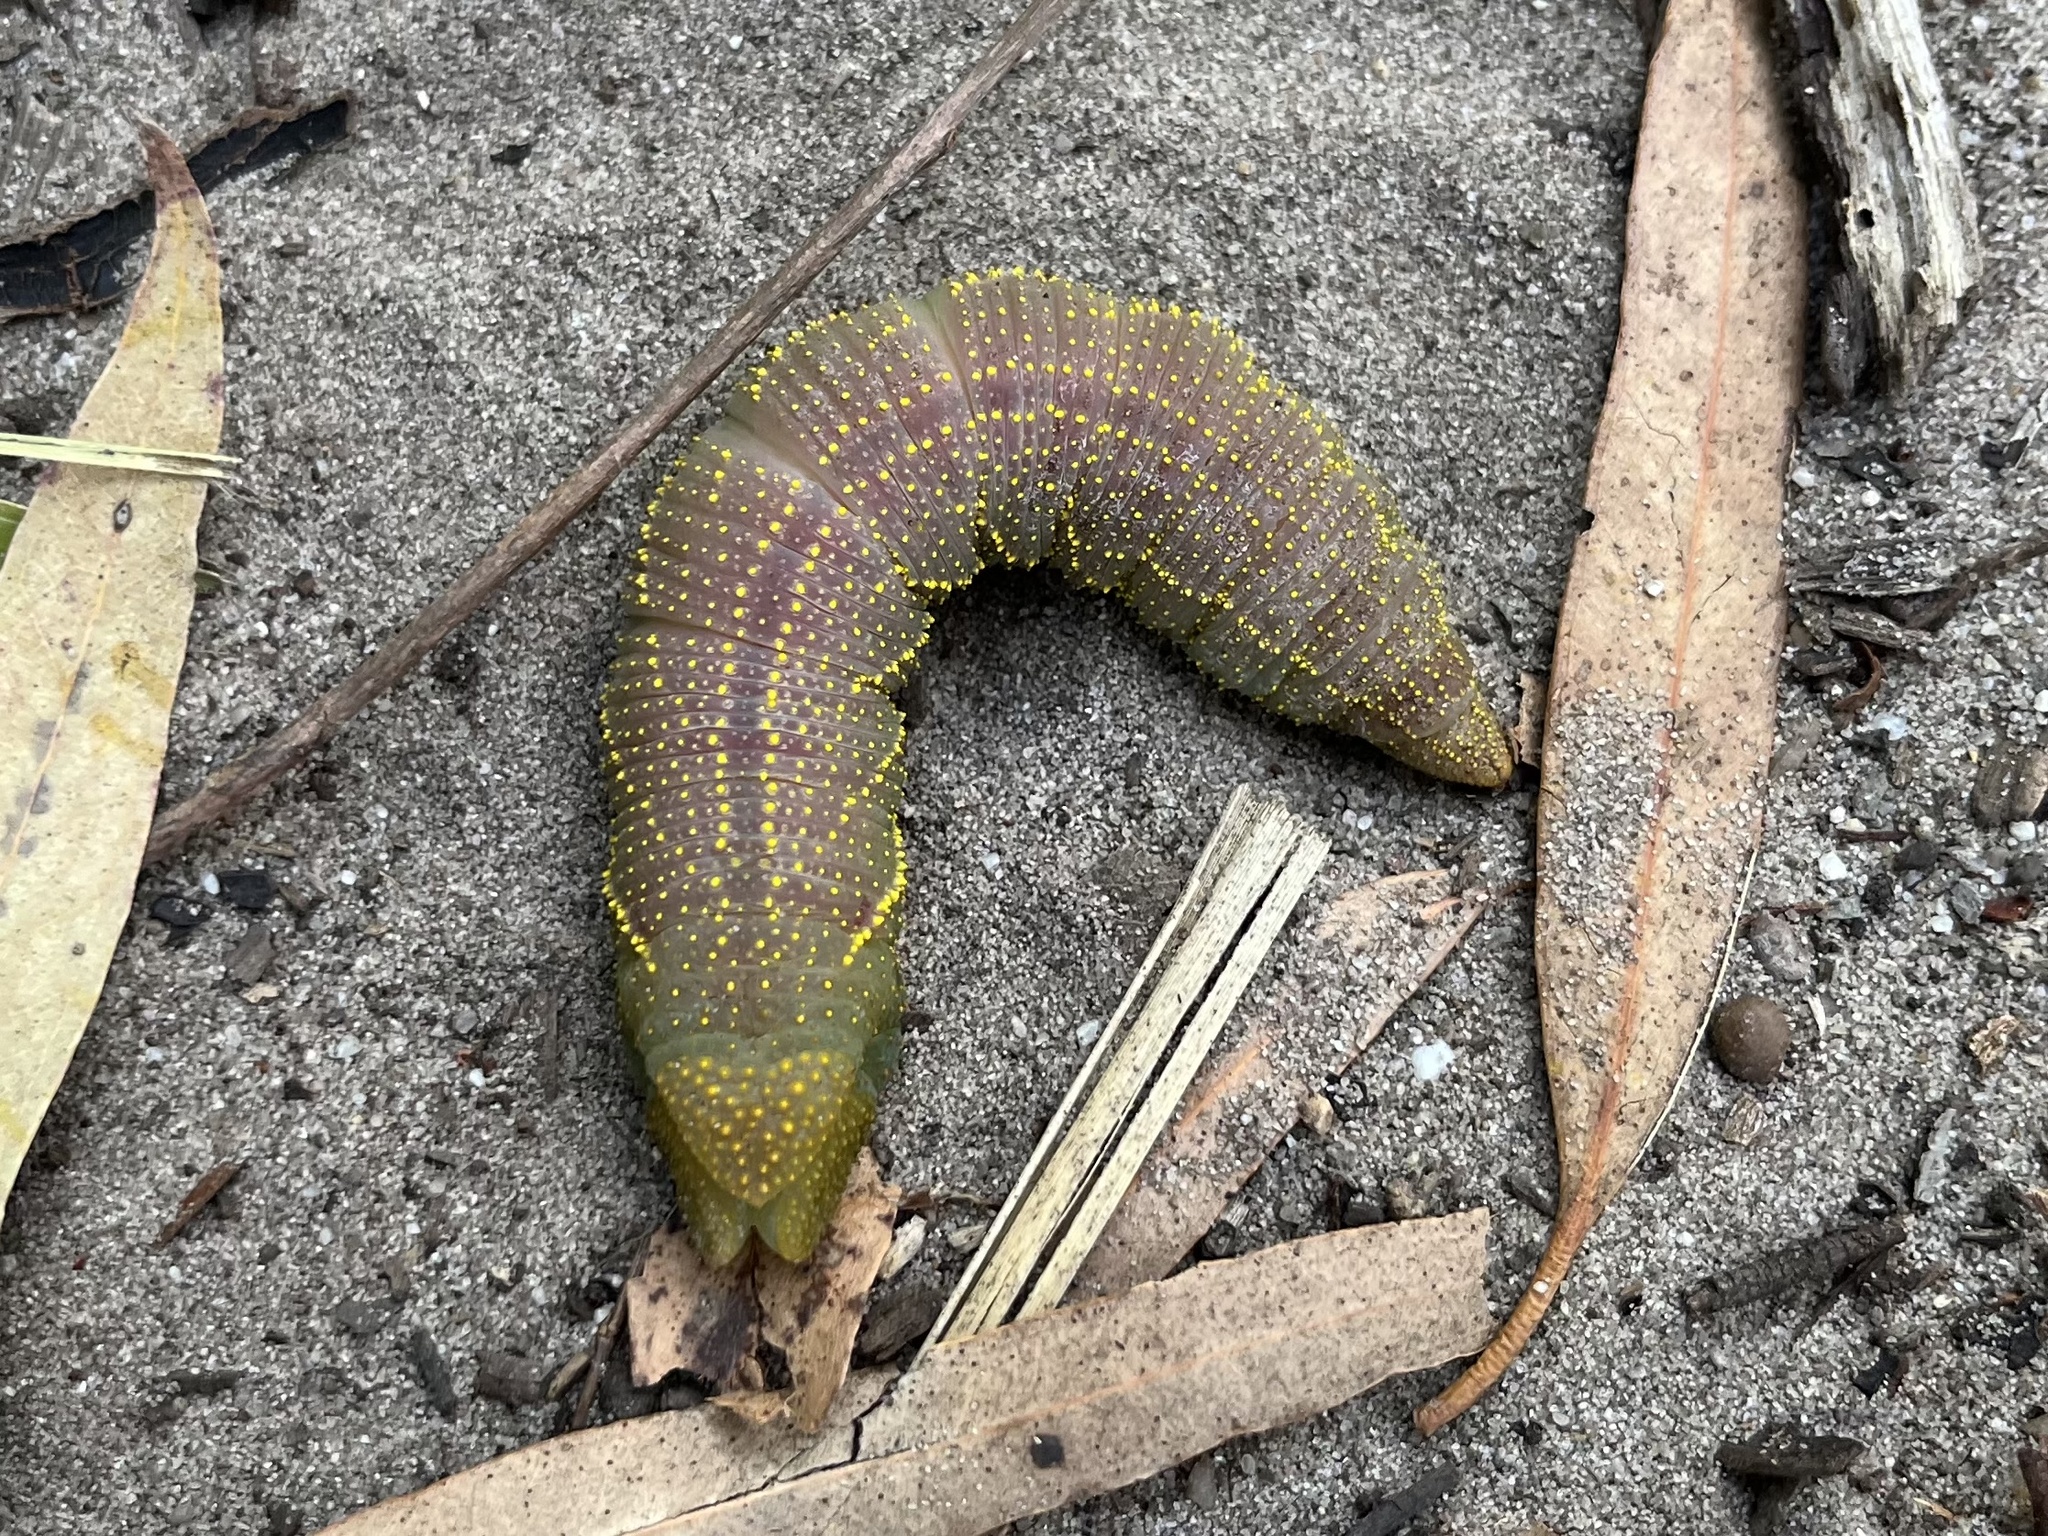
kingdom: Animalia
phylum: Arthropoda
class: Insecta
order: Lepidoptera
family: Sphingidae
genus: Coequosa
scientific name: Coequosa australasiae
